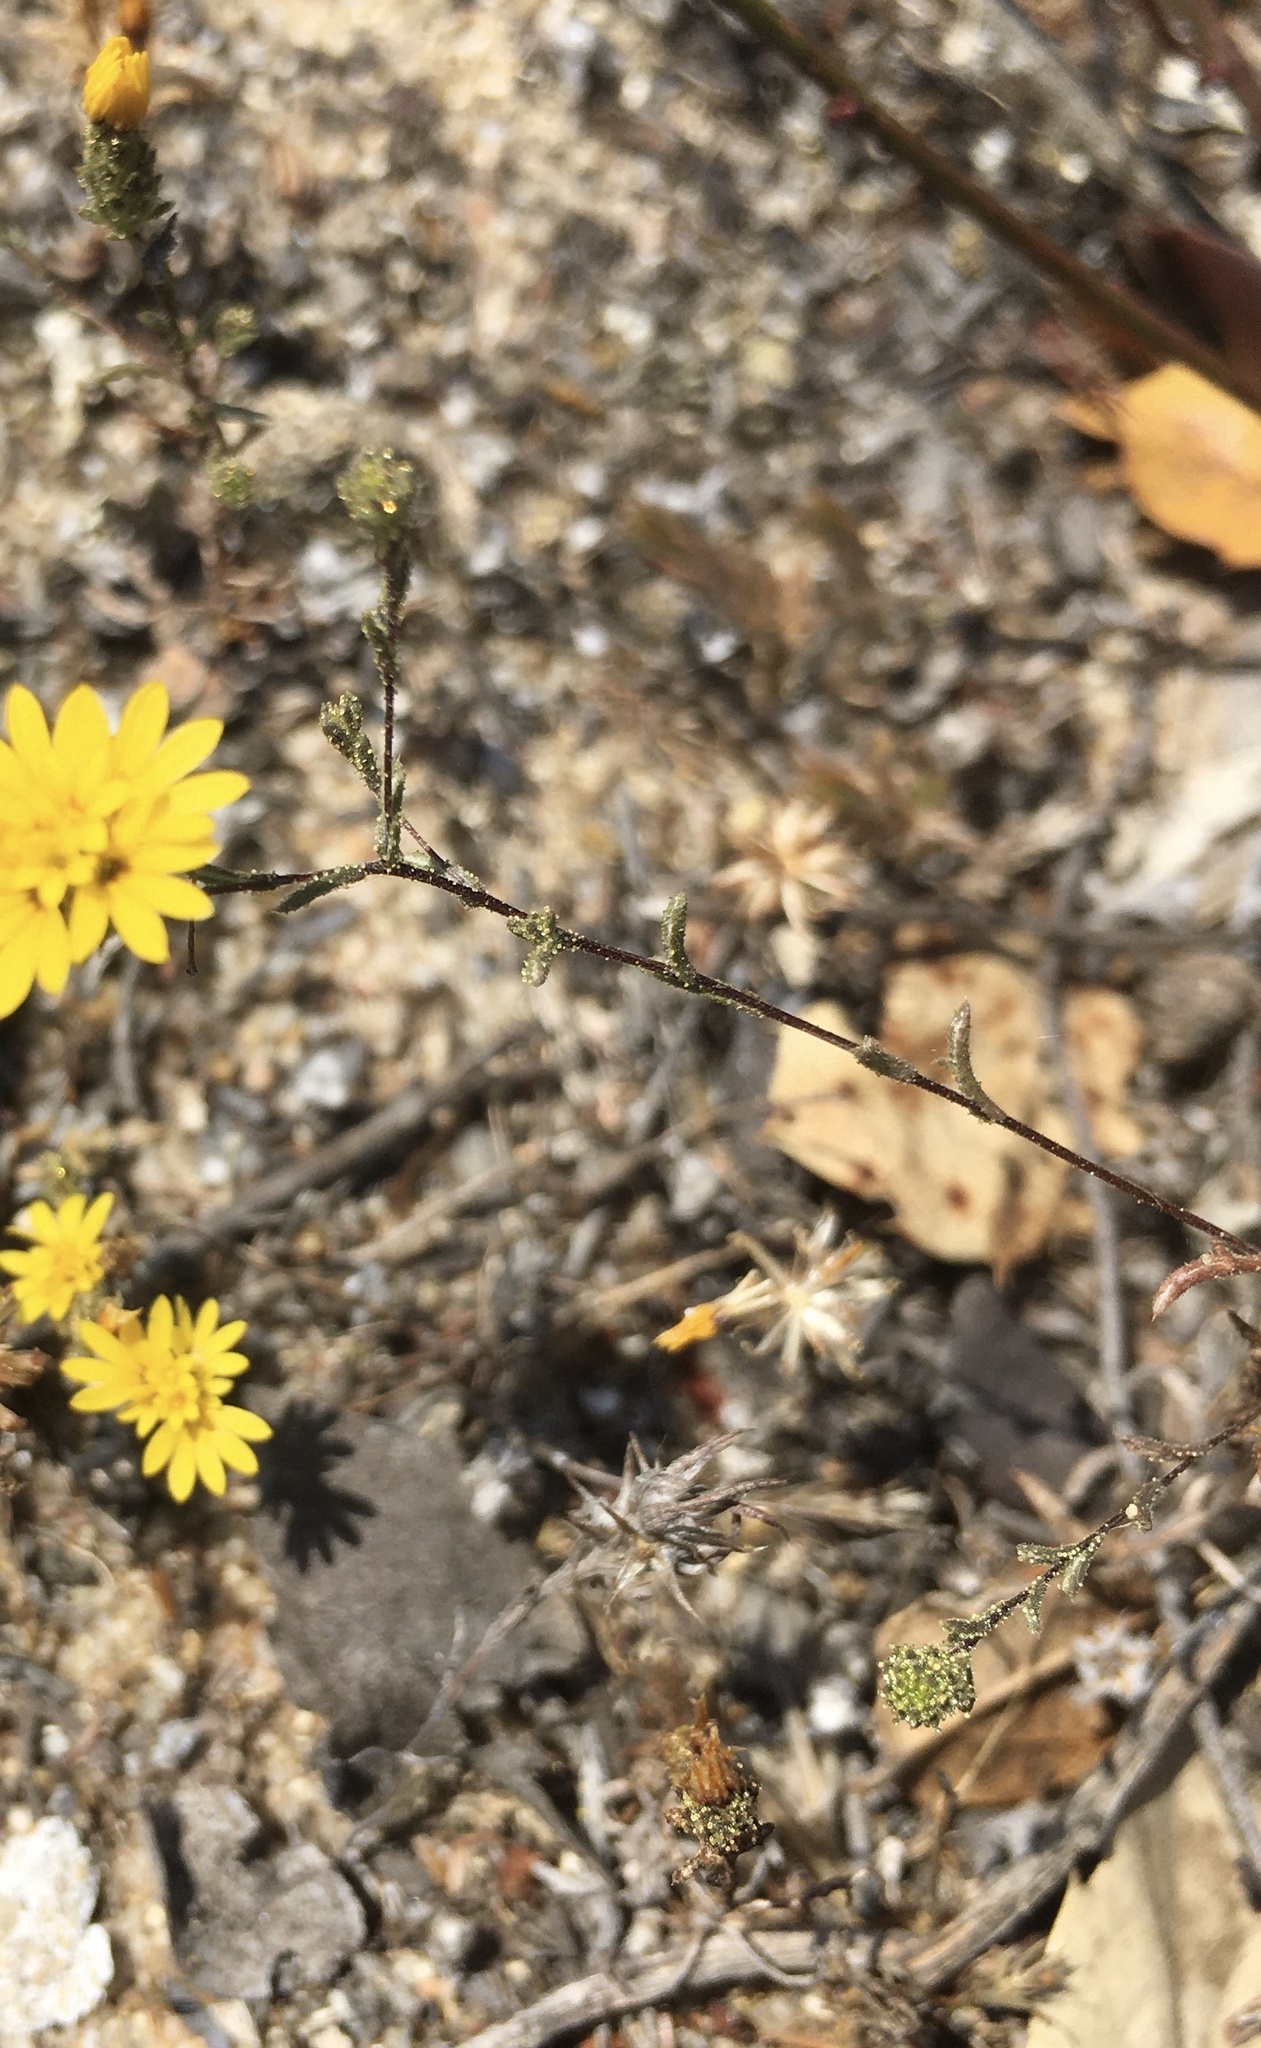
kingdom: Plantae
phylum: Tracheophyta
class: Magnoliopsida
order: Asterales
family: Asteraceae
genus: Lessingia
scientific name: Lessingia pectinata
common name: Valley lessingia
